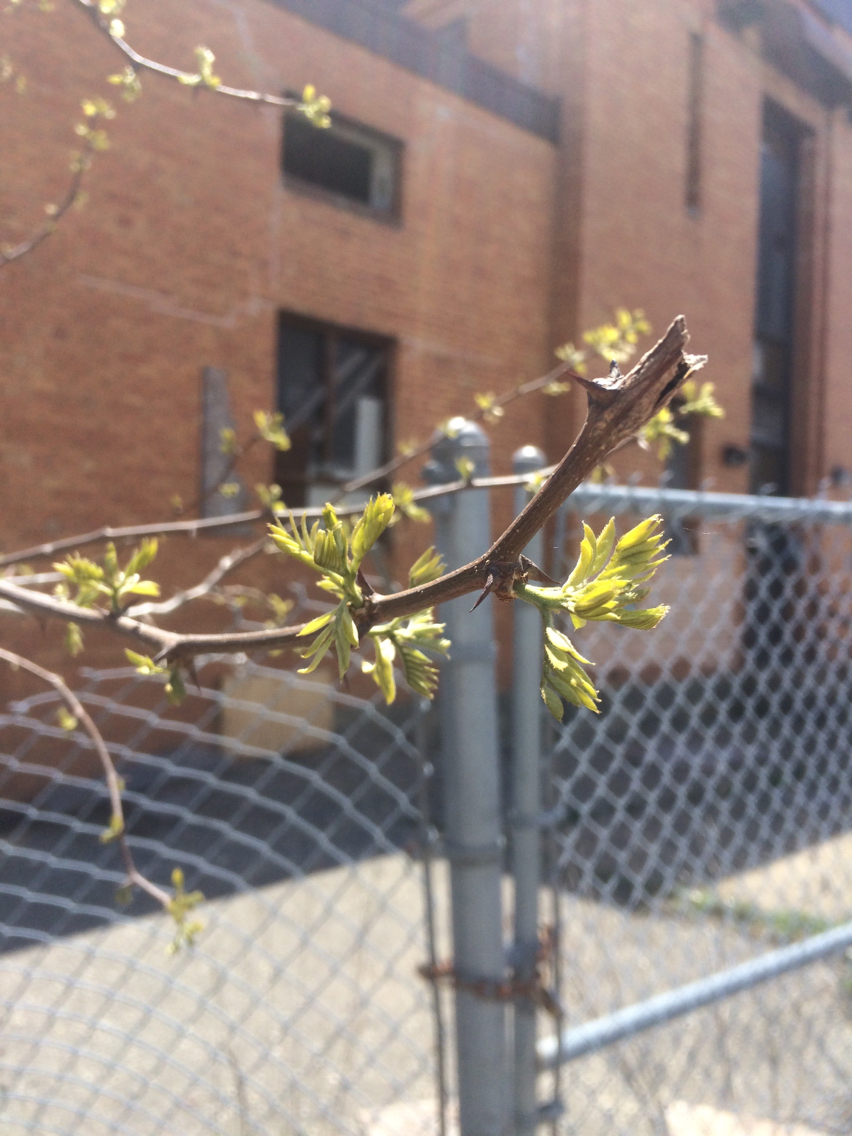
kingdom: Plantae
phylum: Tracheophyta
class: Magnoliopsida
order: Fabales
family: Fabaceae
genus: Robinia
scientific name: Robinia pseudoacacia
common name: Black locust
